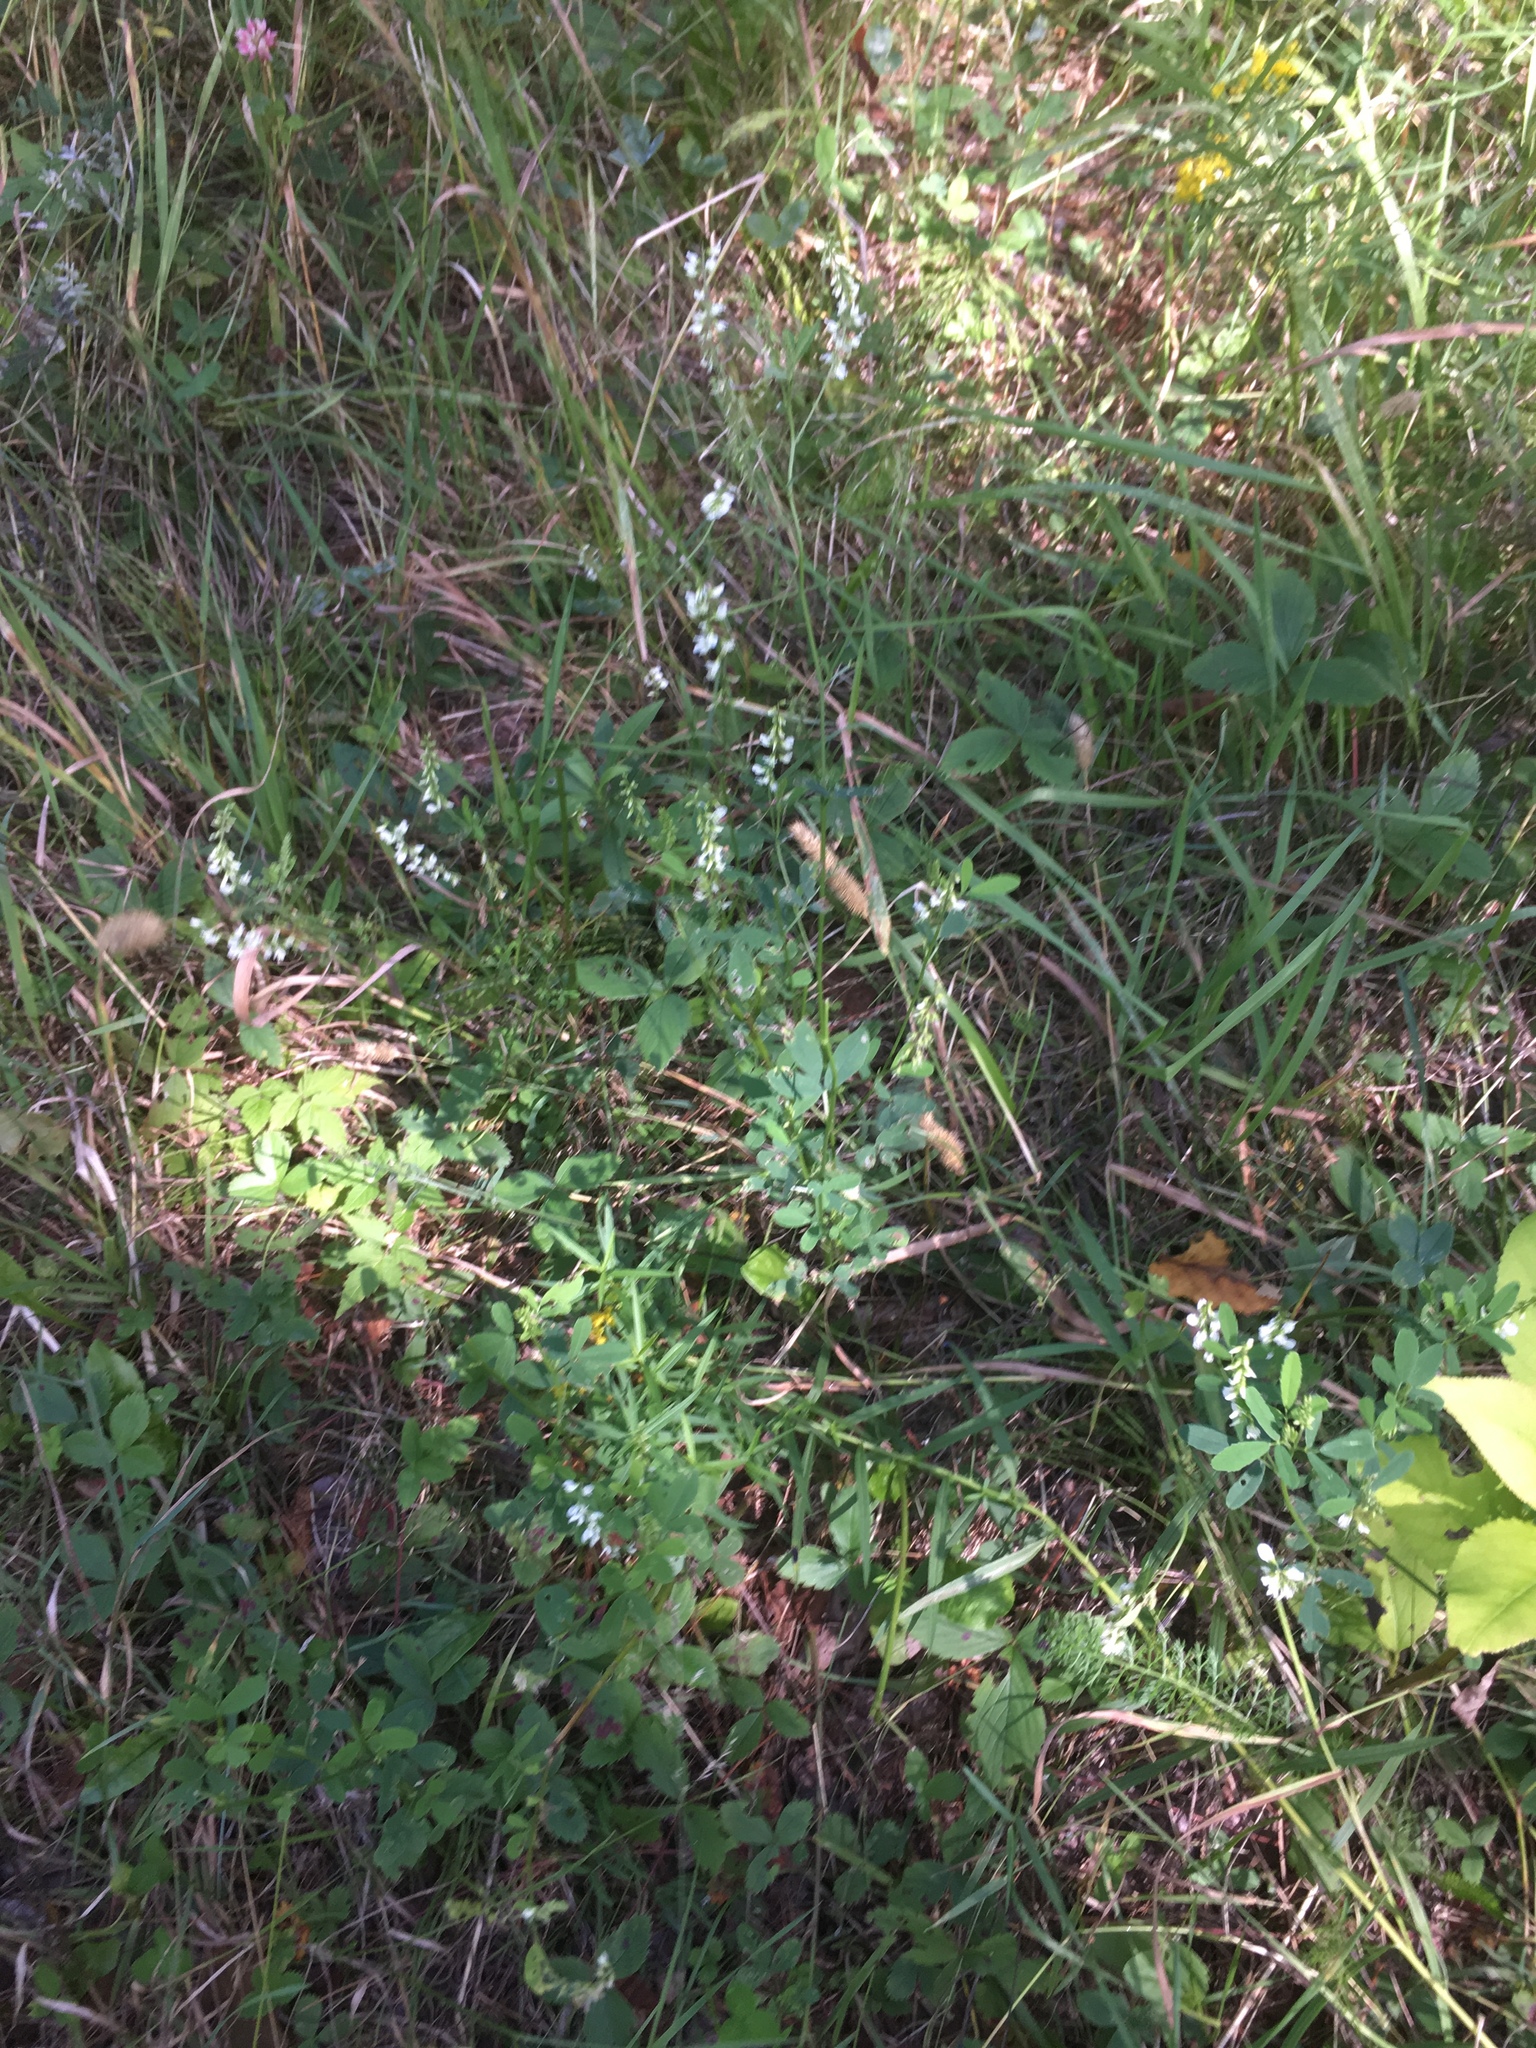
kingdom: Plantae
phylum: Tracheophyta
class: Magnoliopsida
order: Fabales
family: Fabaceae
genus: Melilotus
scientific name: Melilotus albus
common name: White melilot
